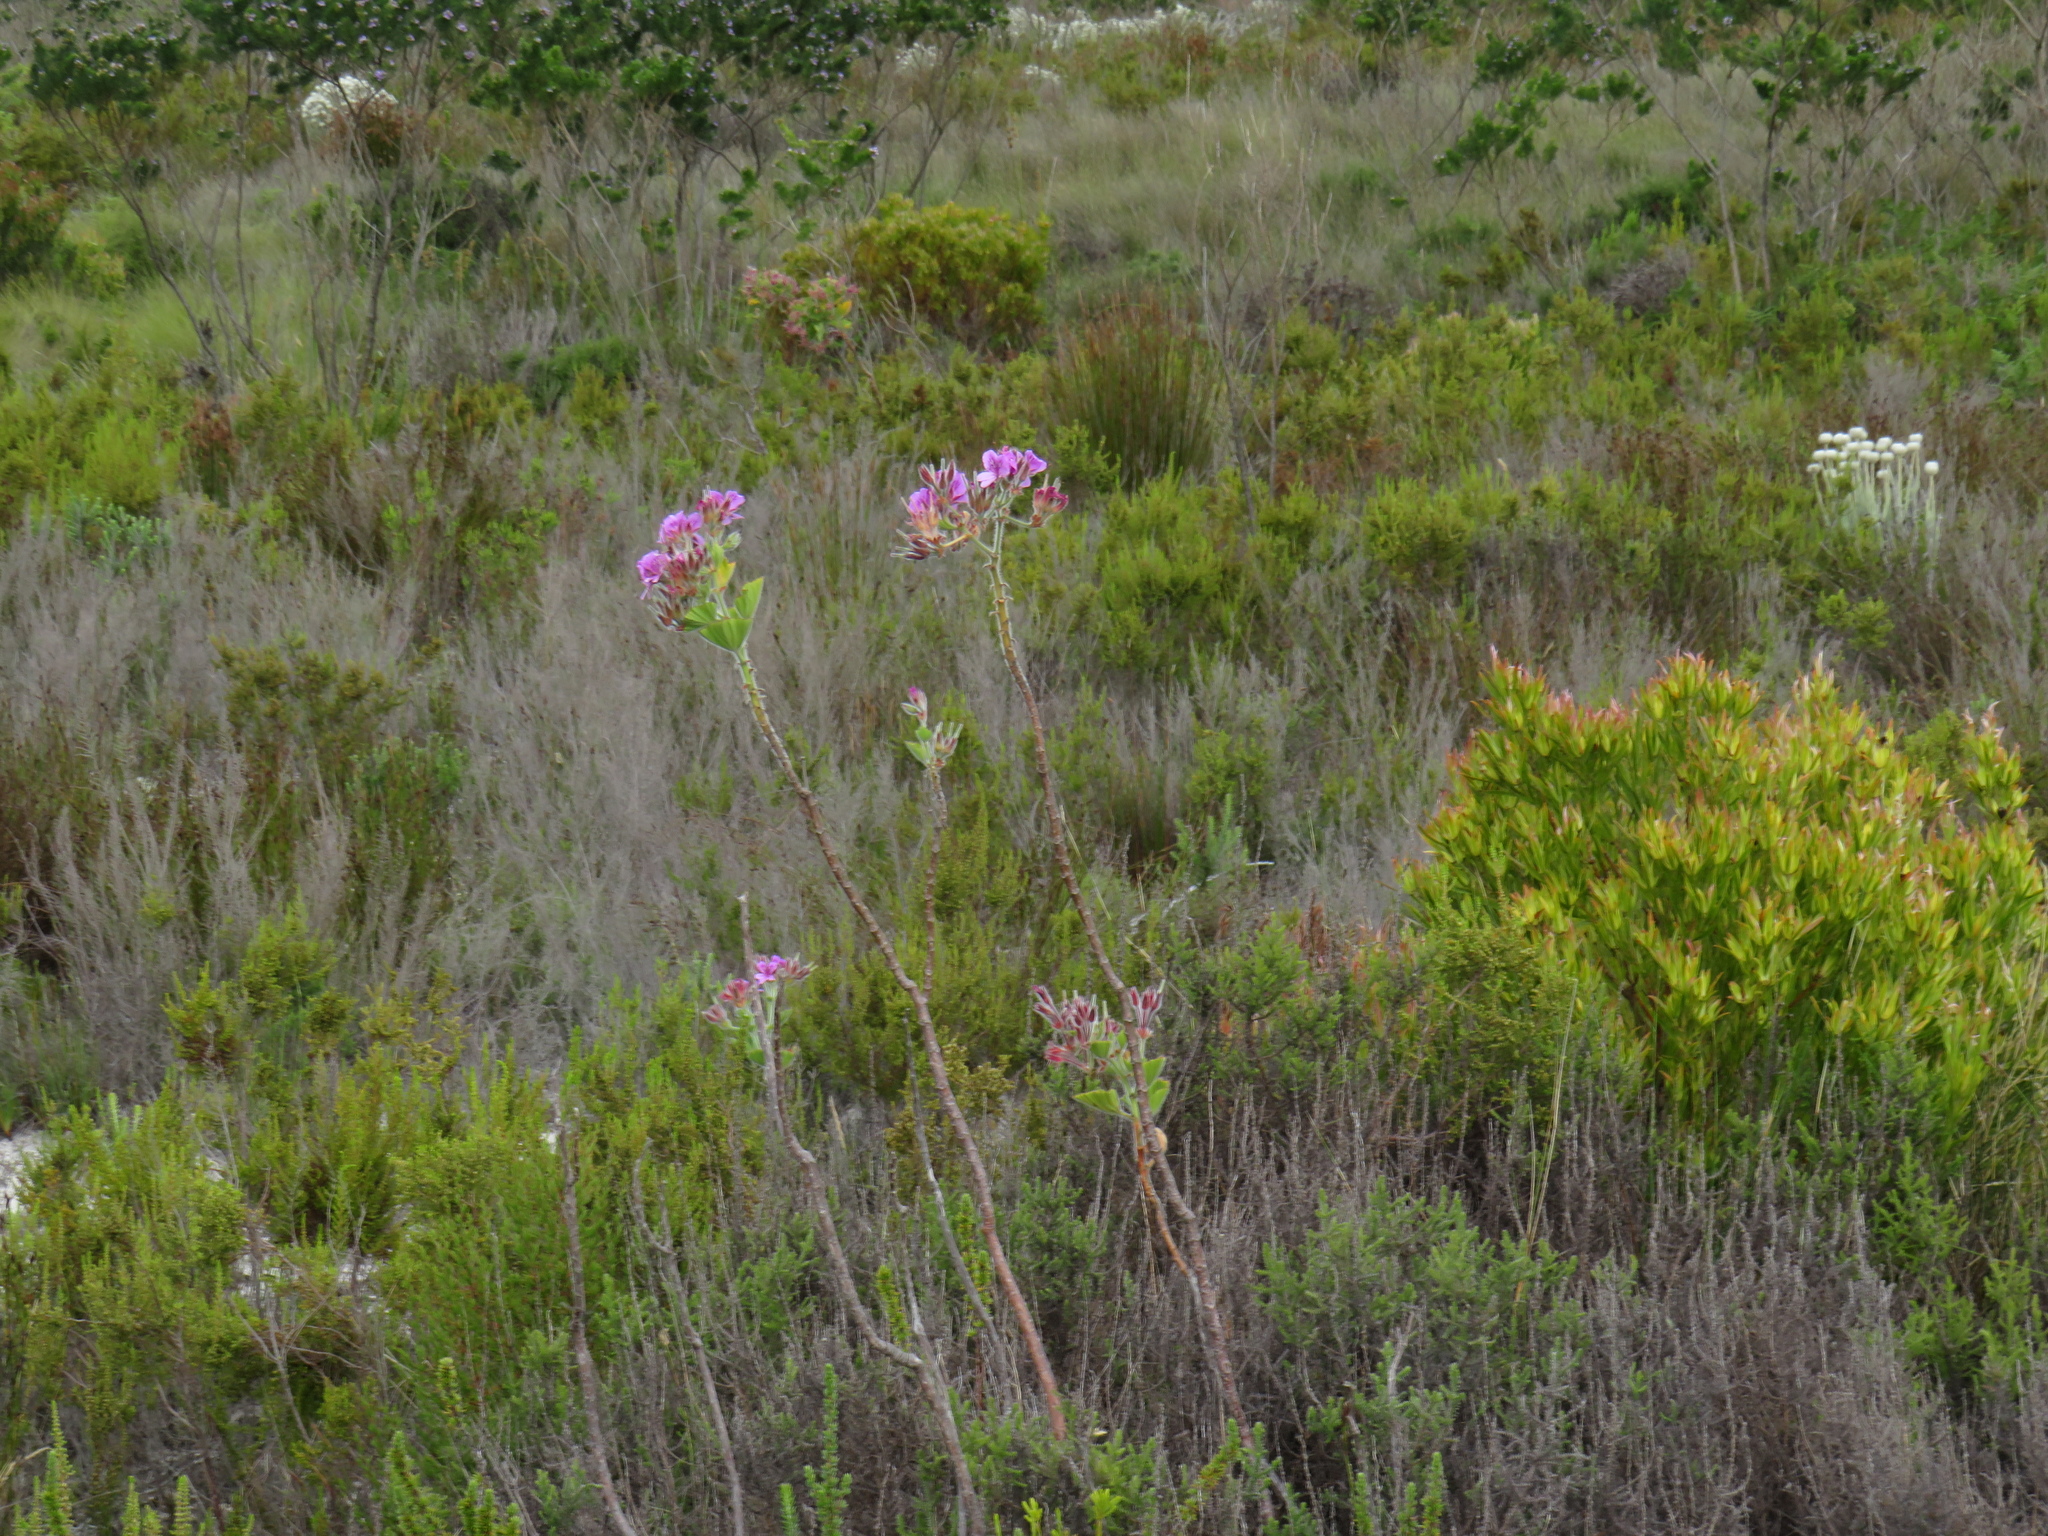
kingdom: Plantae
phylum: Tracheophyta
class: Magnoliopsida
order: Geraniales
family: Geraniaceae
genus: Pelargonium
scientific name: Pelargonium cucullatum
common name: Tree pelargonium
